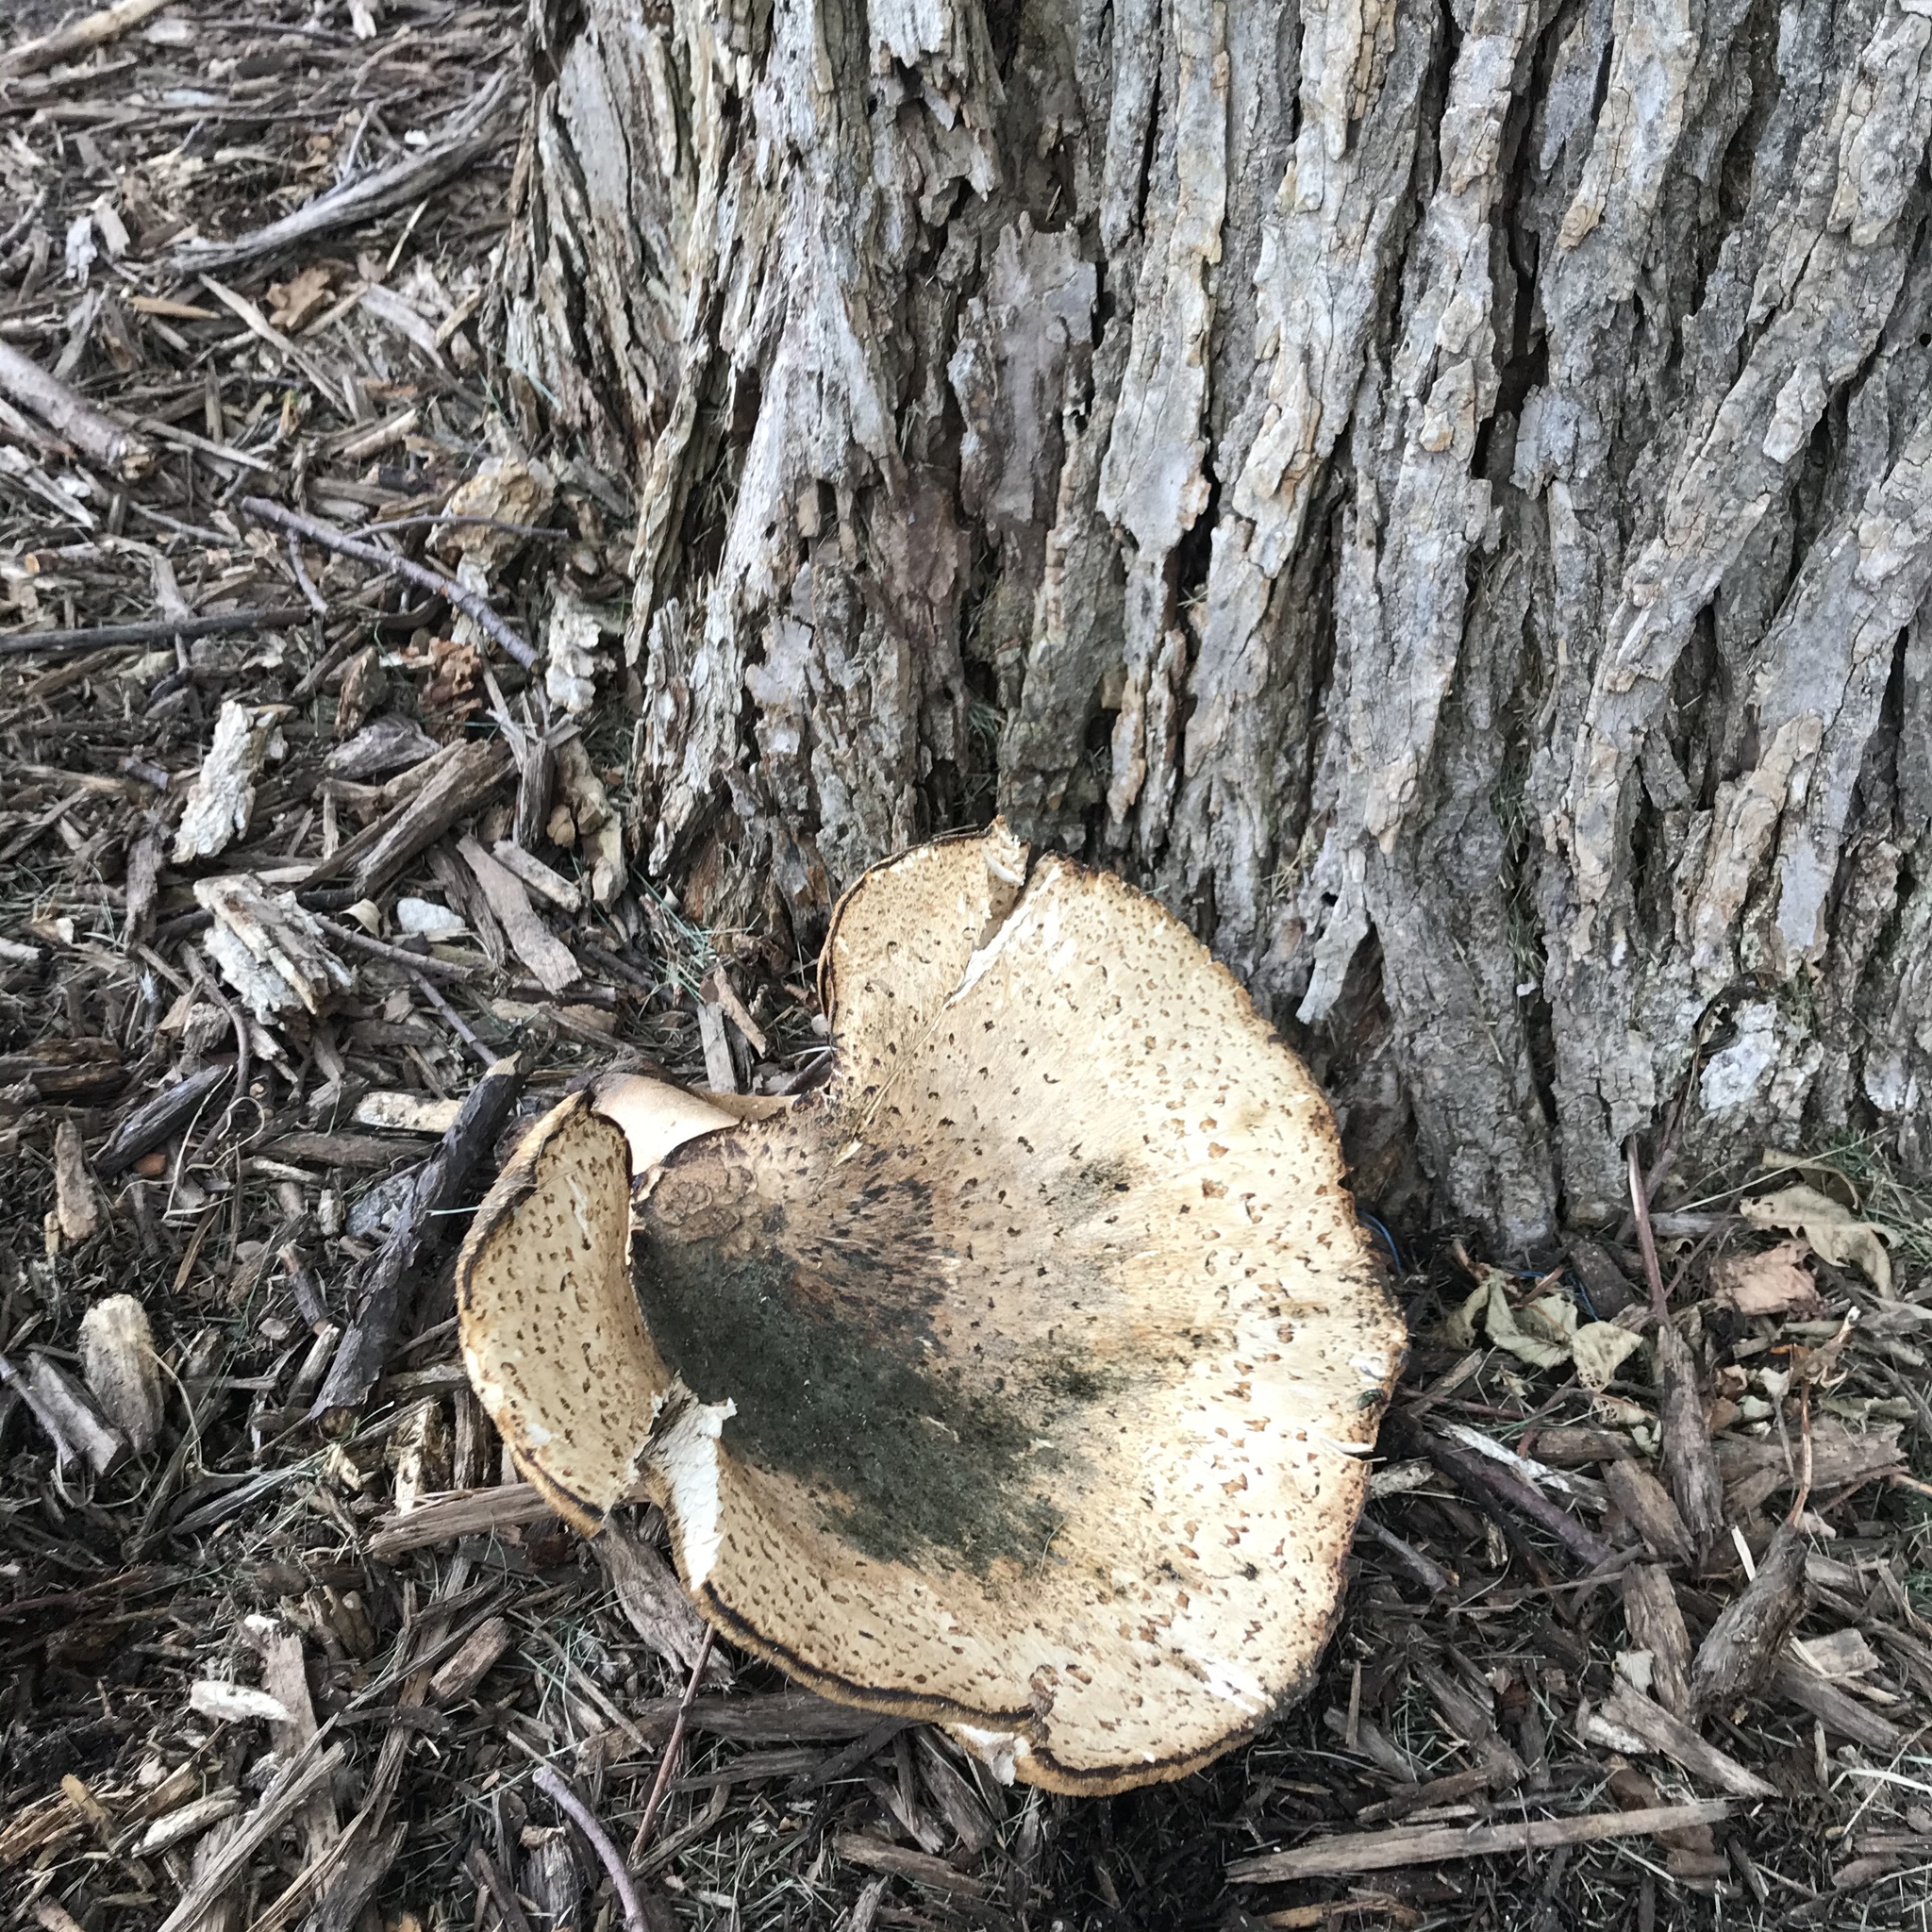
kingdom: Fungi
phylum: Basidiomycota
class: Agaricomycetes
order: Polyporales
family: Polyporaceae
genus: Cerioporus
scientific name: Cerioporus squamosus
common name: Dryad's saddle
